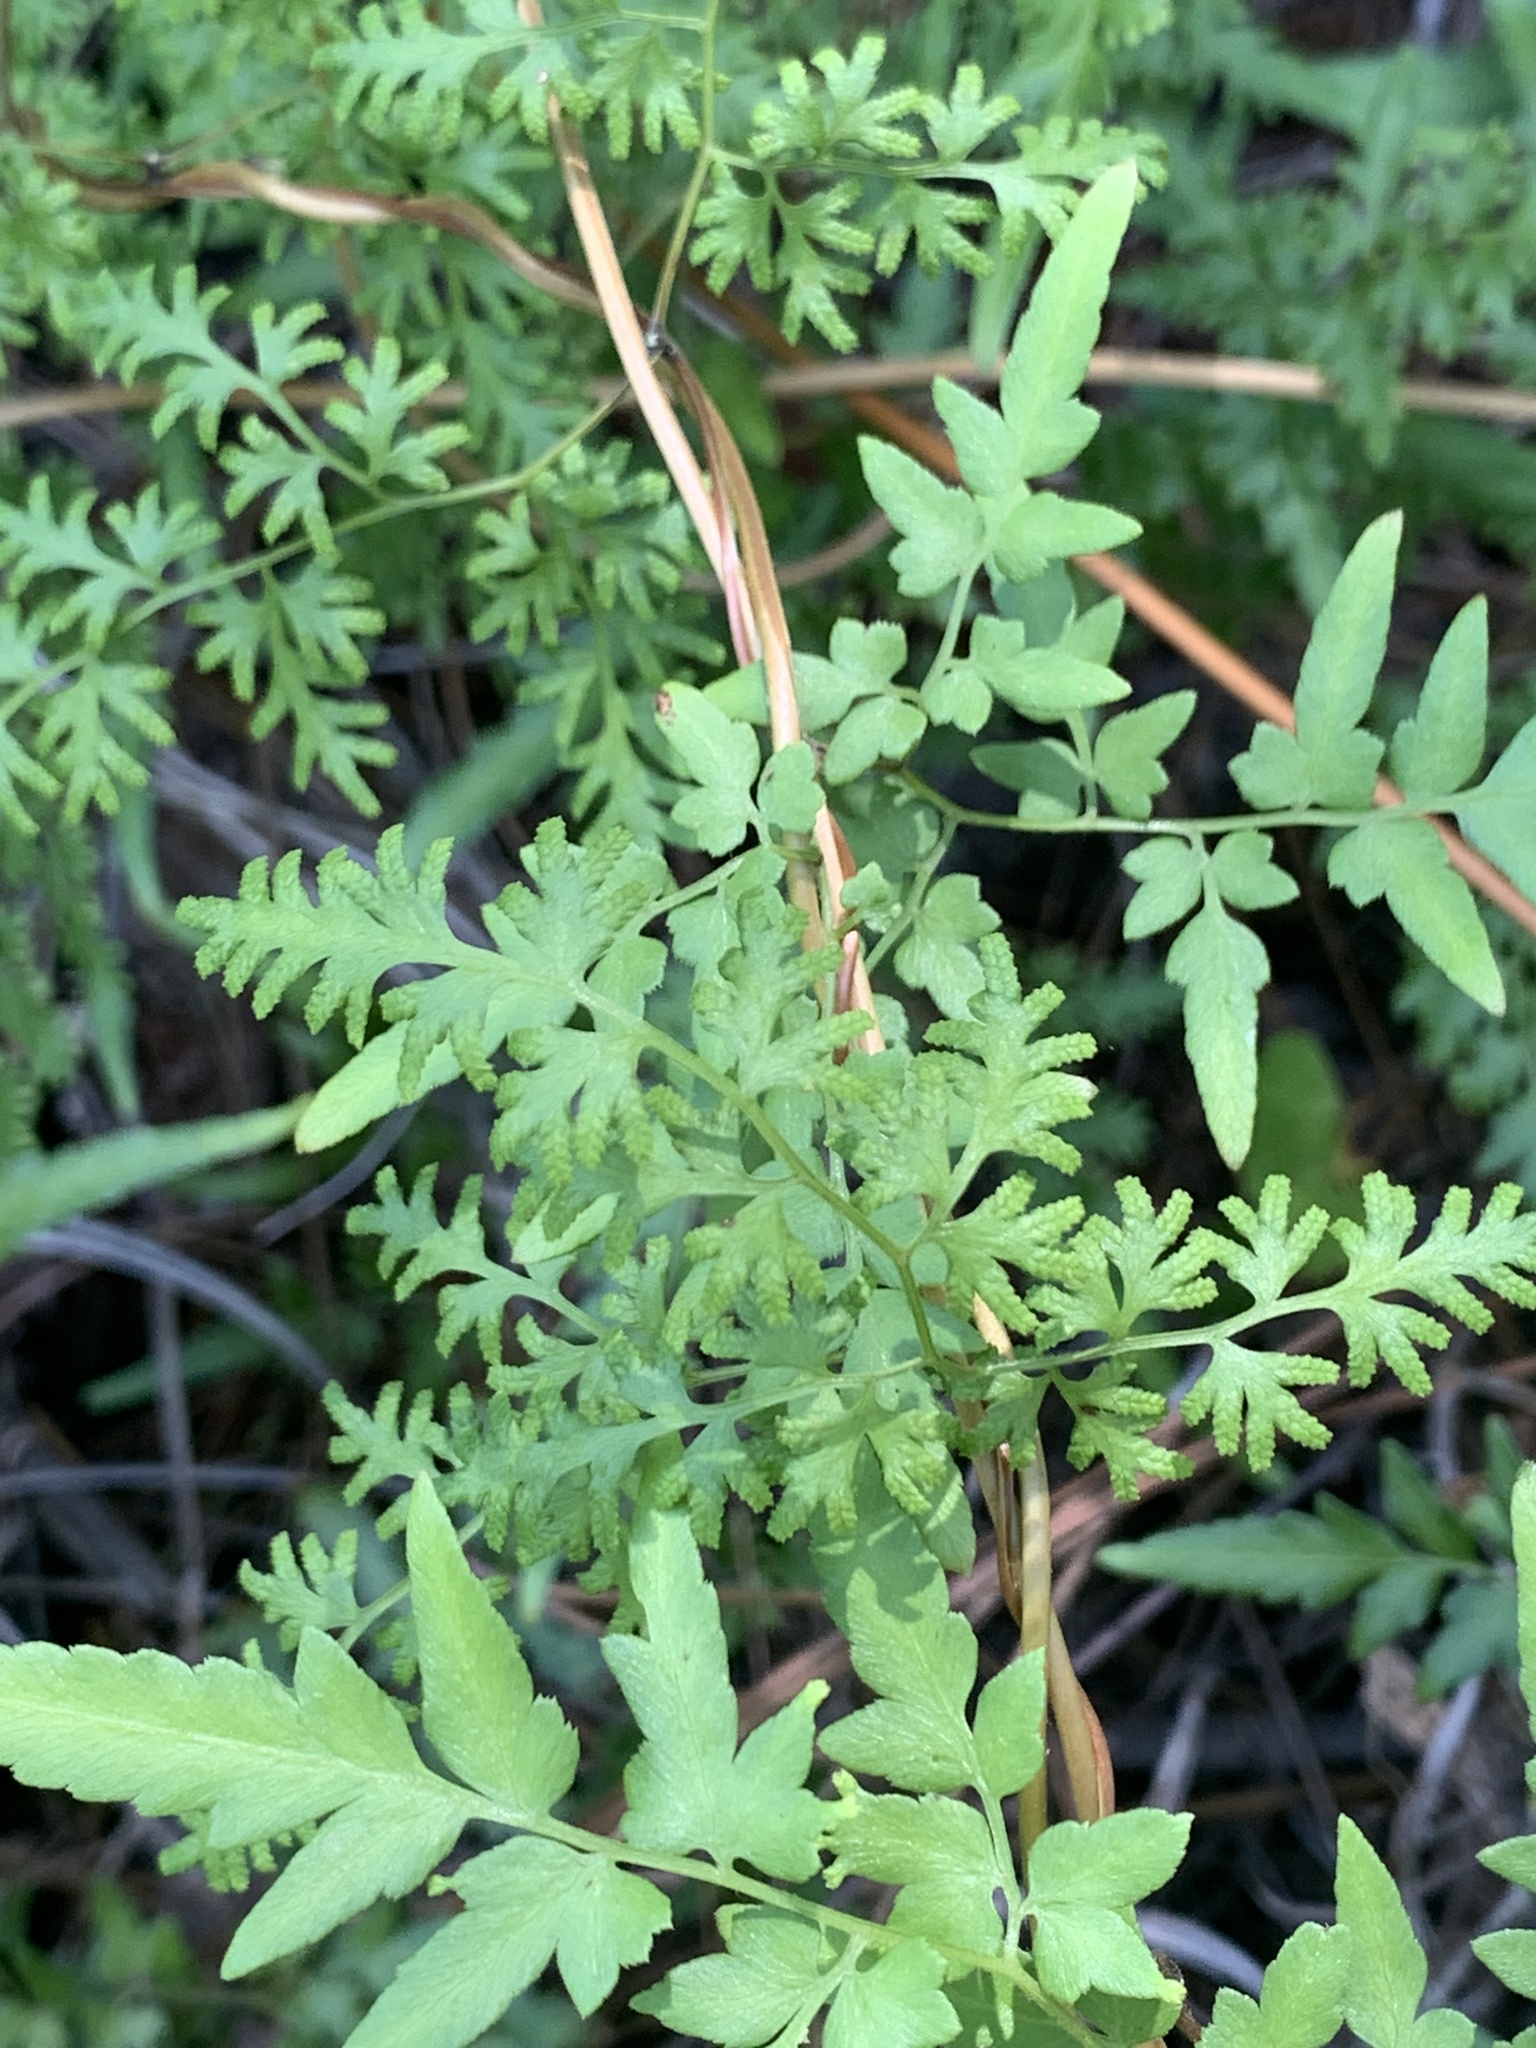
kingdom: Plantae
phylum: Tracheophyta
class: Polypodiopsida
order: Schizaeales
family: Lygodiaceae
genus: Lygodium
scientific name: Lygodium japonicum
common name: Japanese climbing fern
